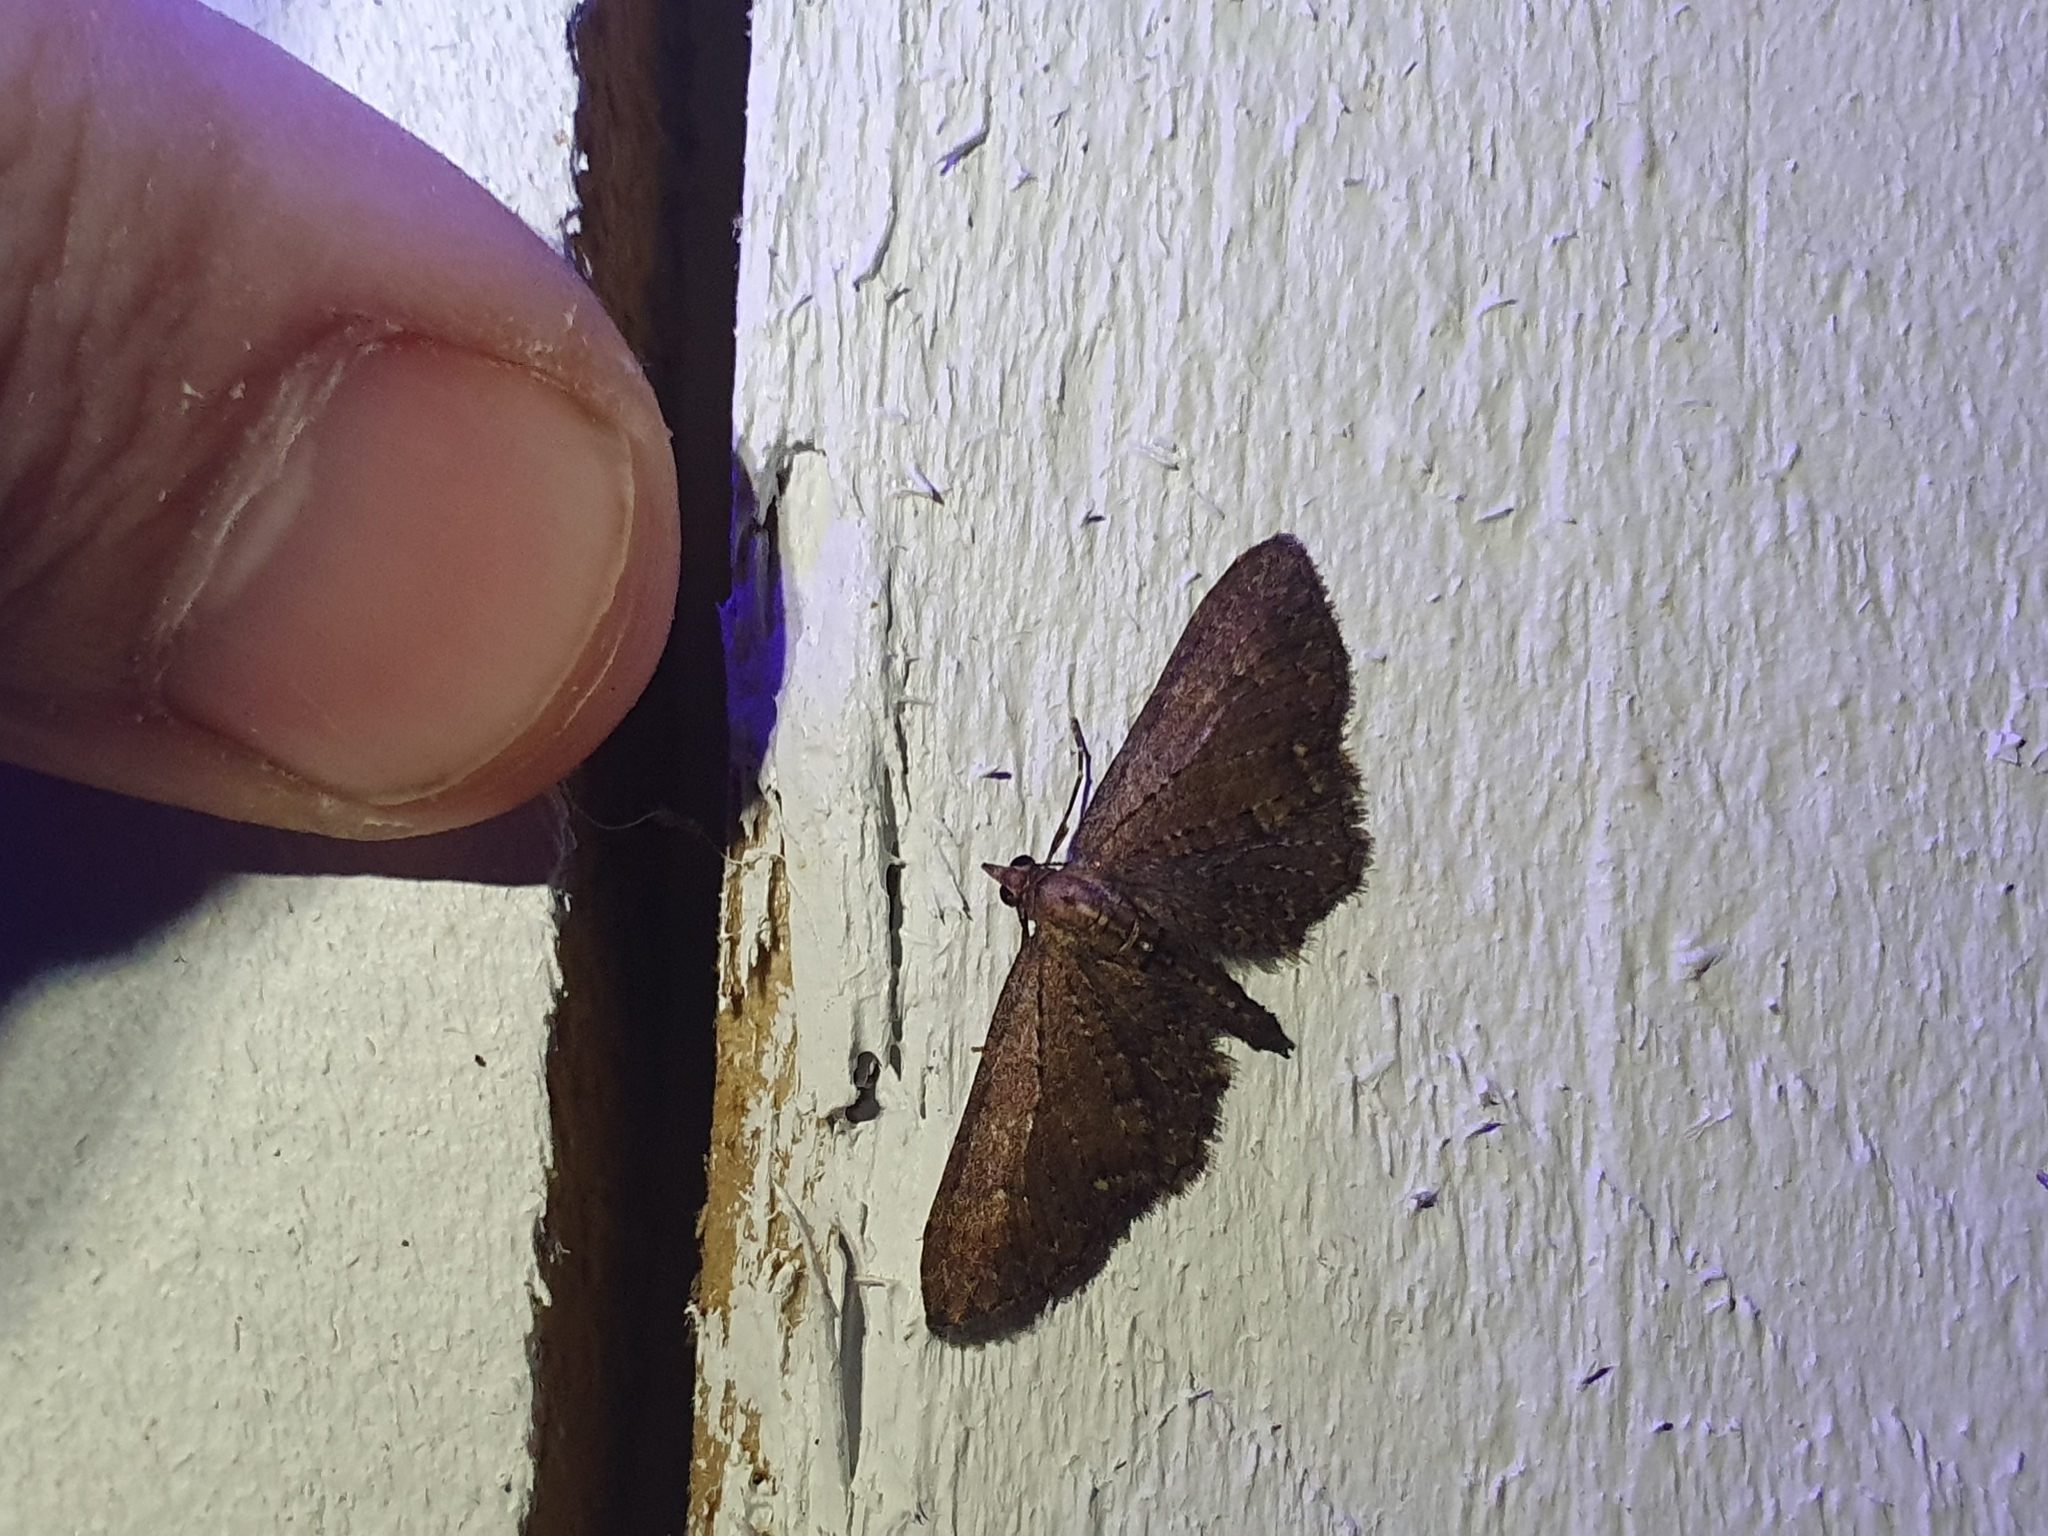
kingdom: Animalia
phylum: Arthropoda
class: Insecta
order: Lepidoptera
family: Geometridae
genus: Pasiphila
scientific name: Pasiphila dryas
